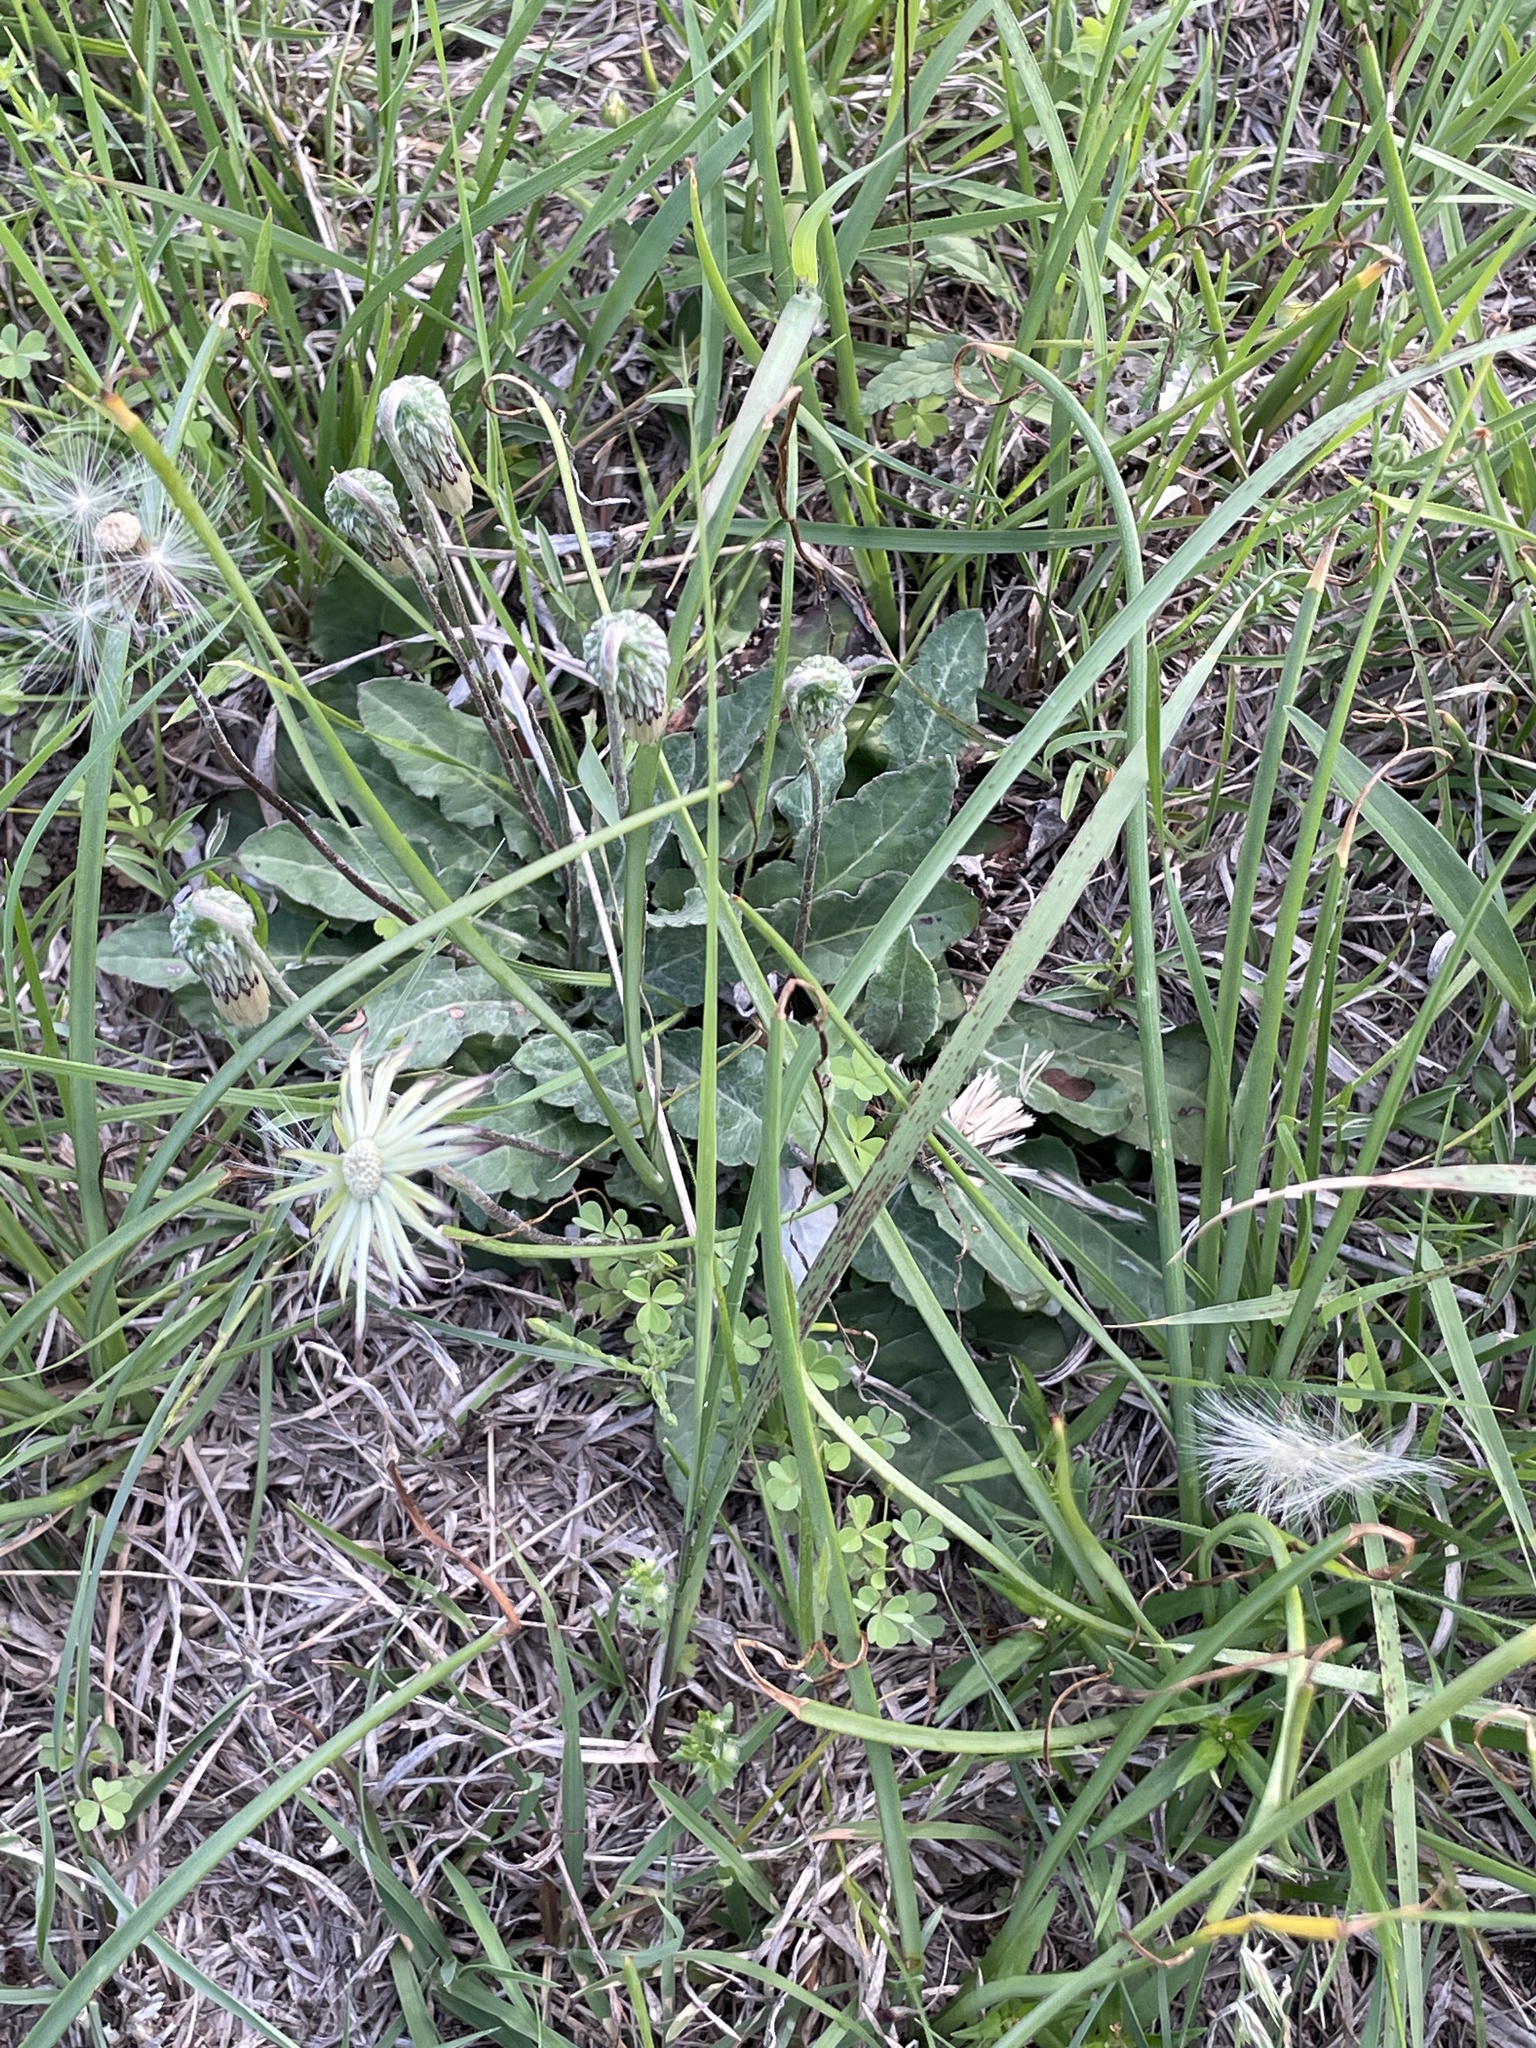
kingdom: Plantae
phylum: Tracheophyta
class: Magnoliopsida
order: Asterales
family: Asteraceae
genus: Chaptalia
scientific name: Chaptalia texana
